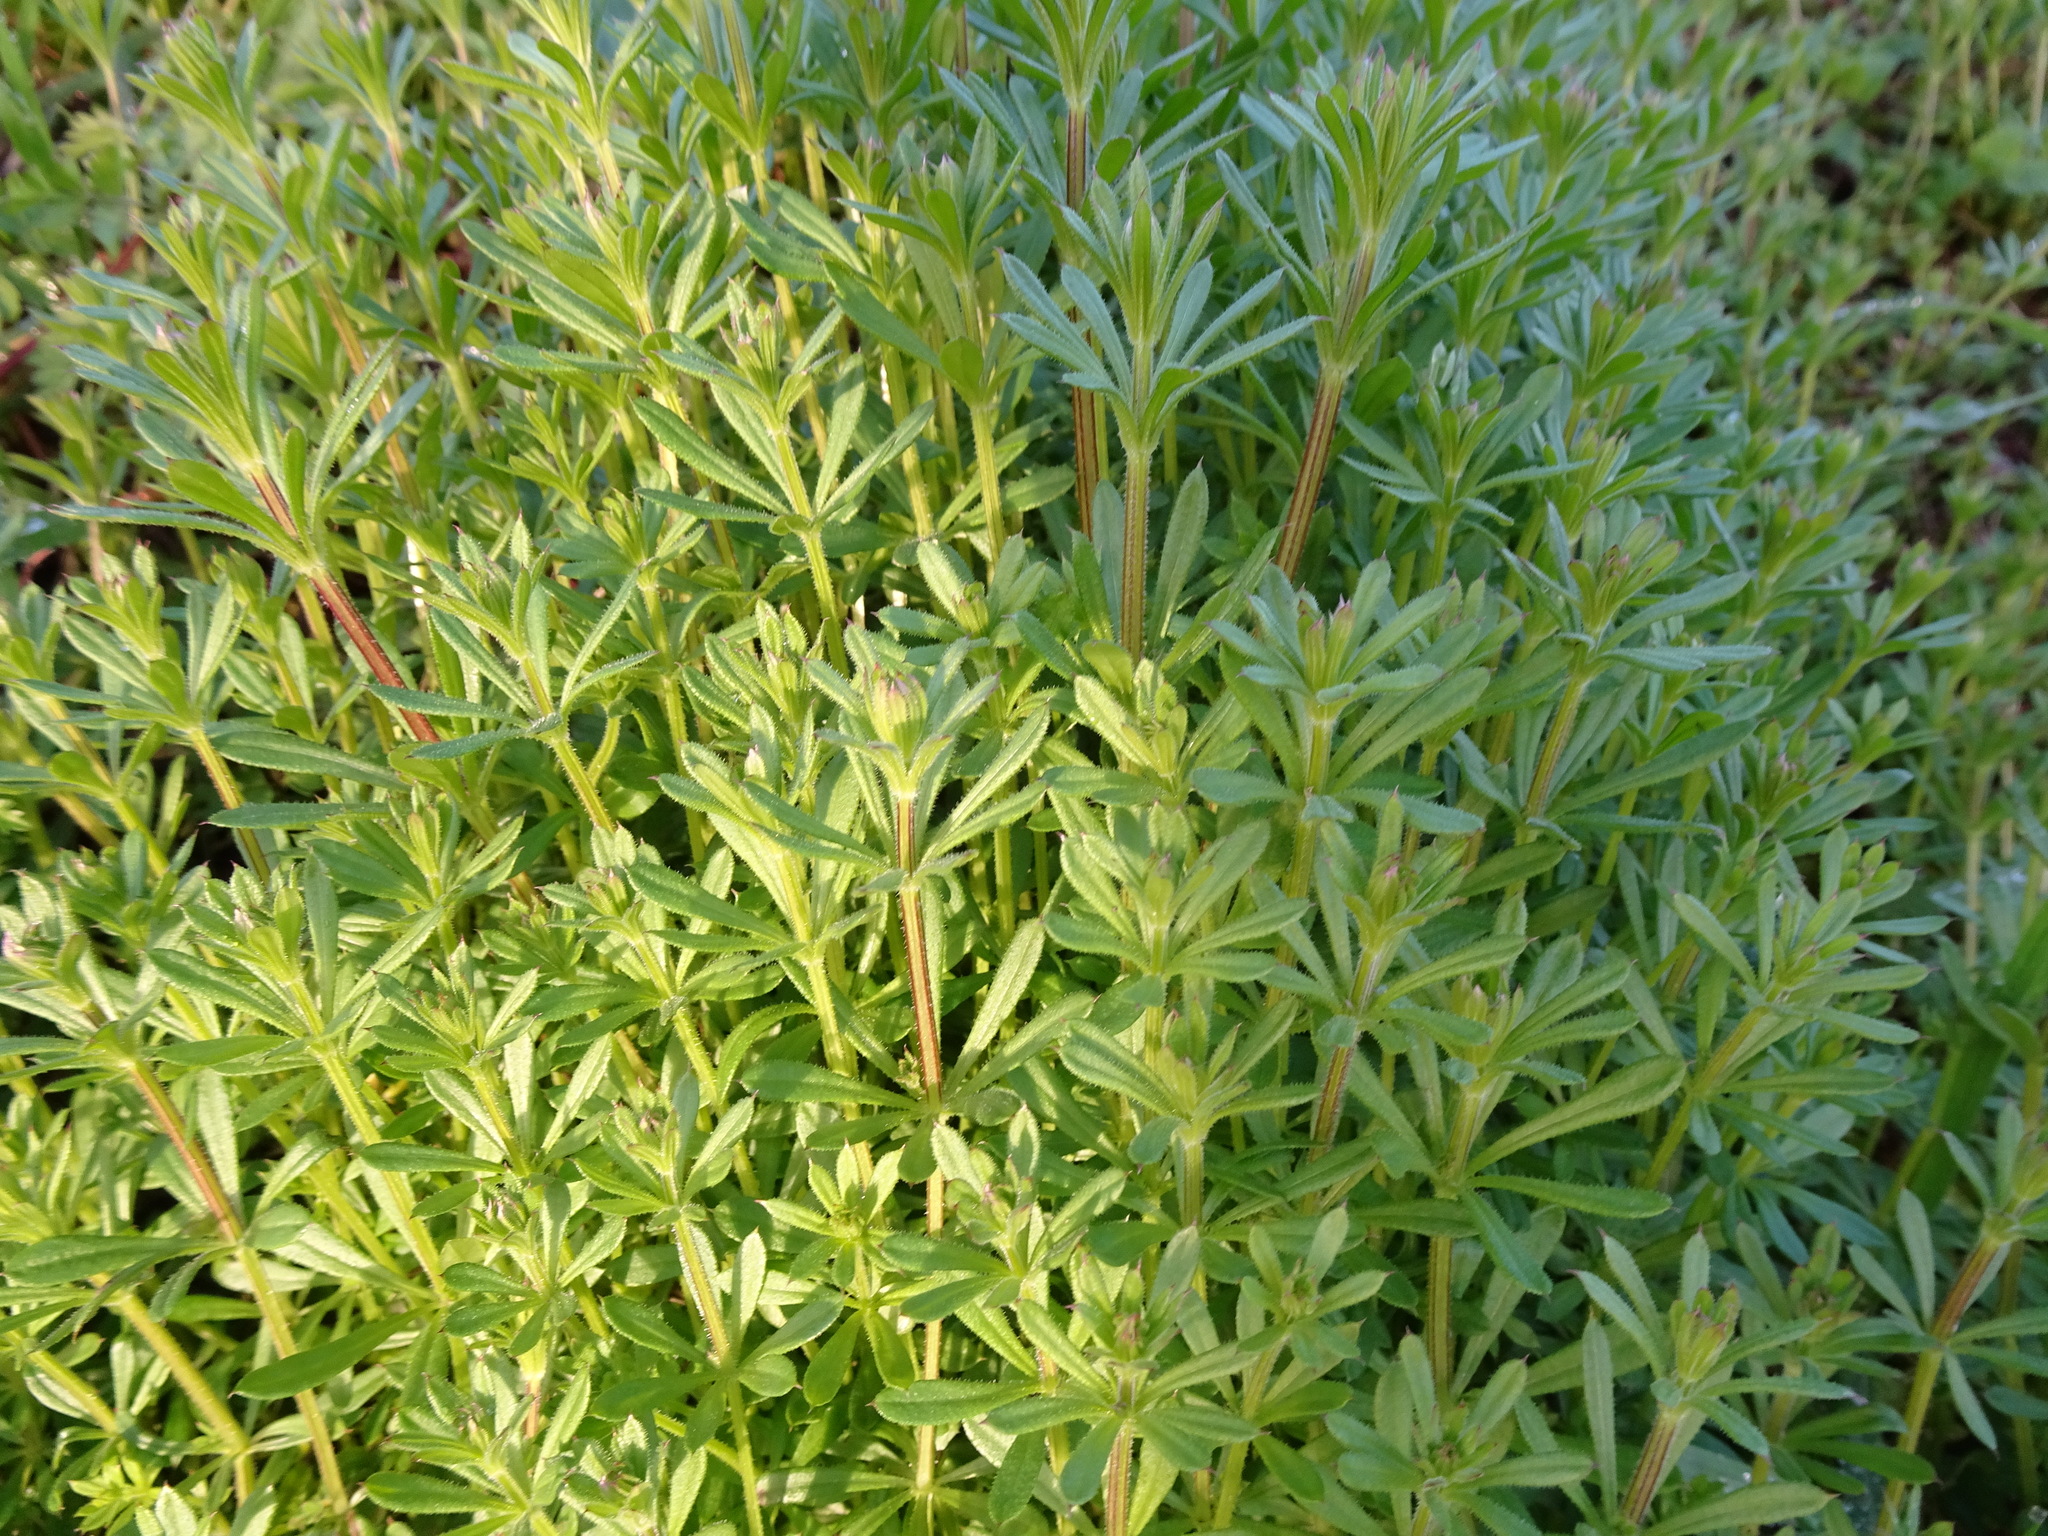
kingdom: Plantae
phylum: Tracheophyta
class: Magnoliopsida
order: Gentianales
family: Rubiaceae
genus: Galium
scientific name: Galium aparine
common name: Cleavers
